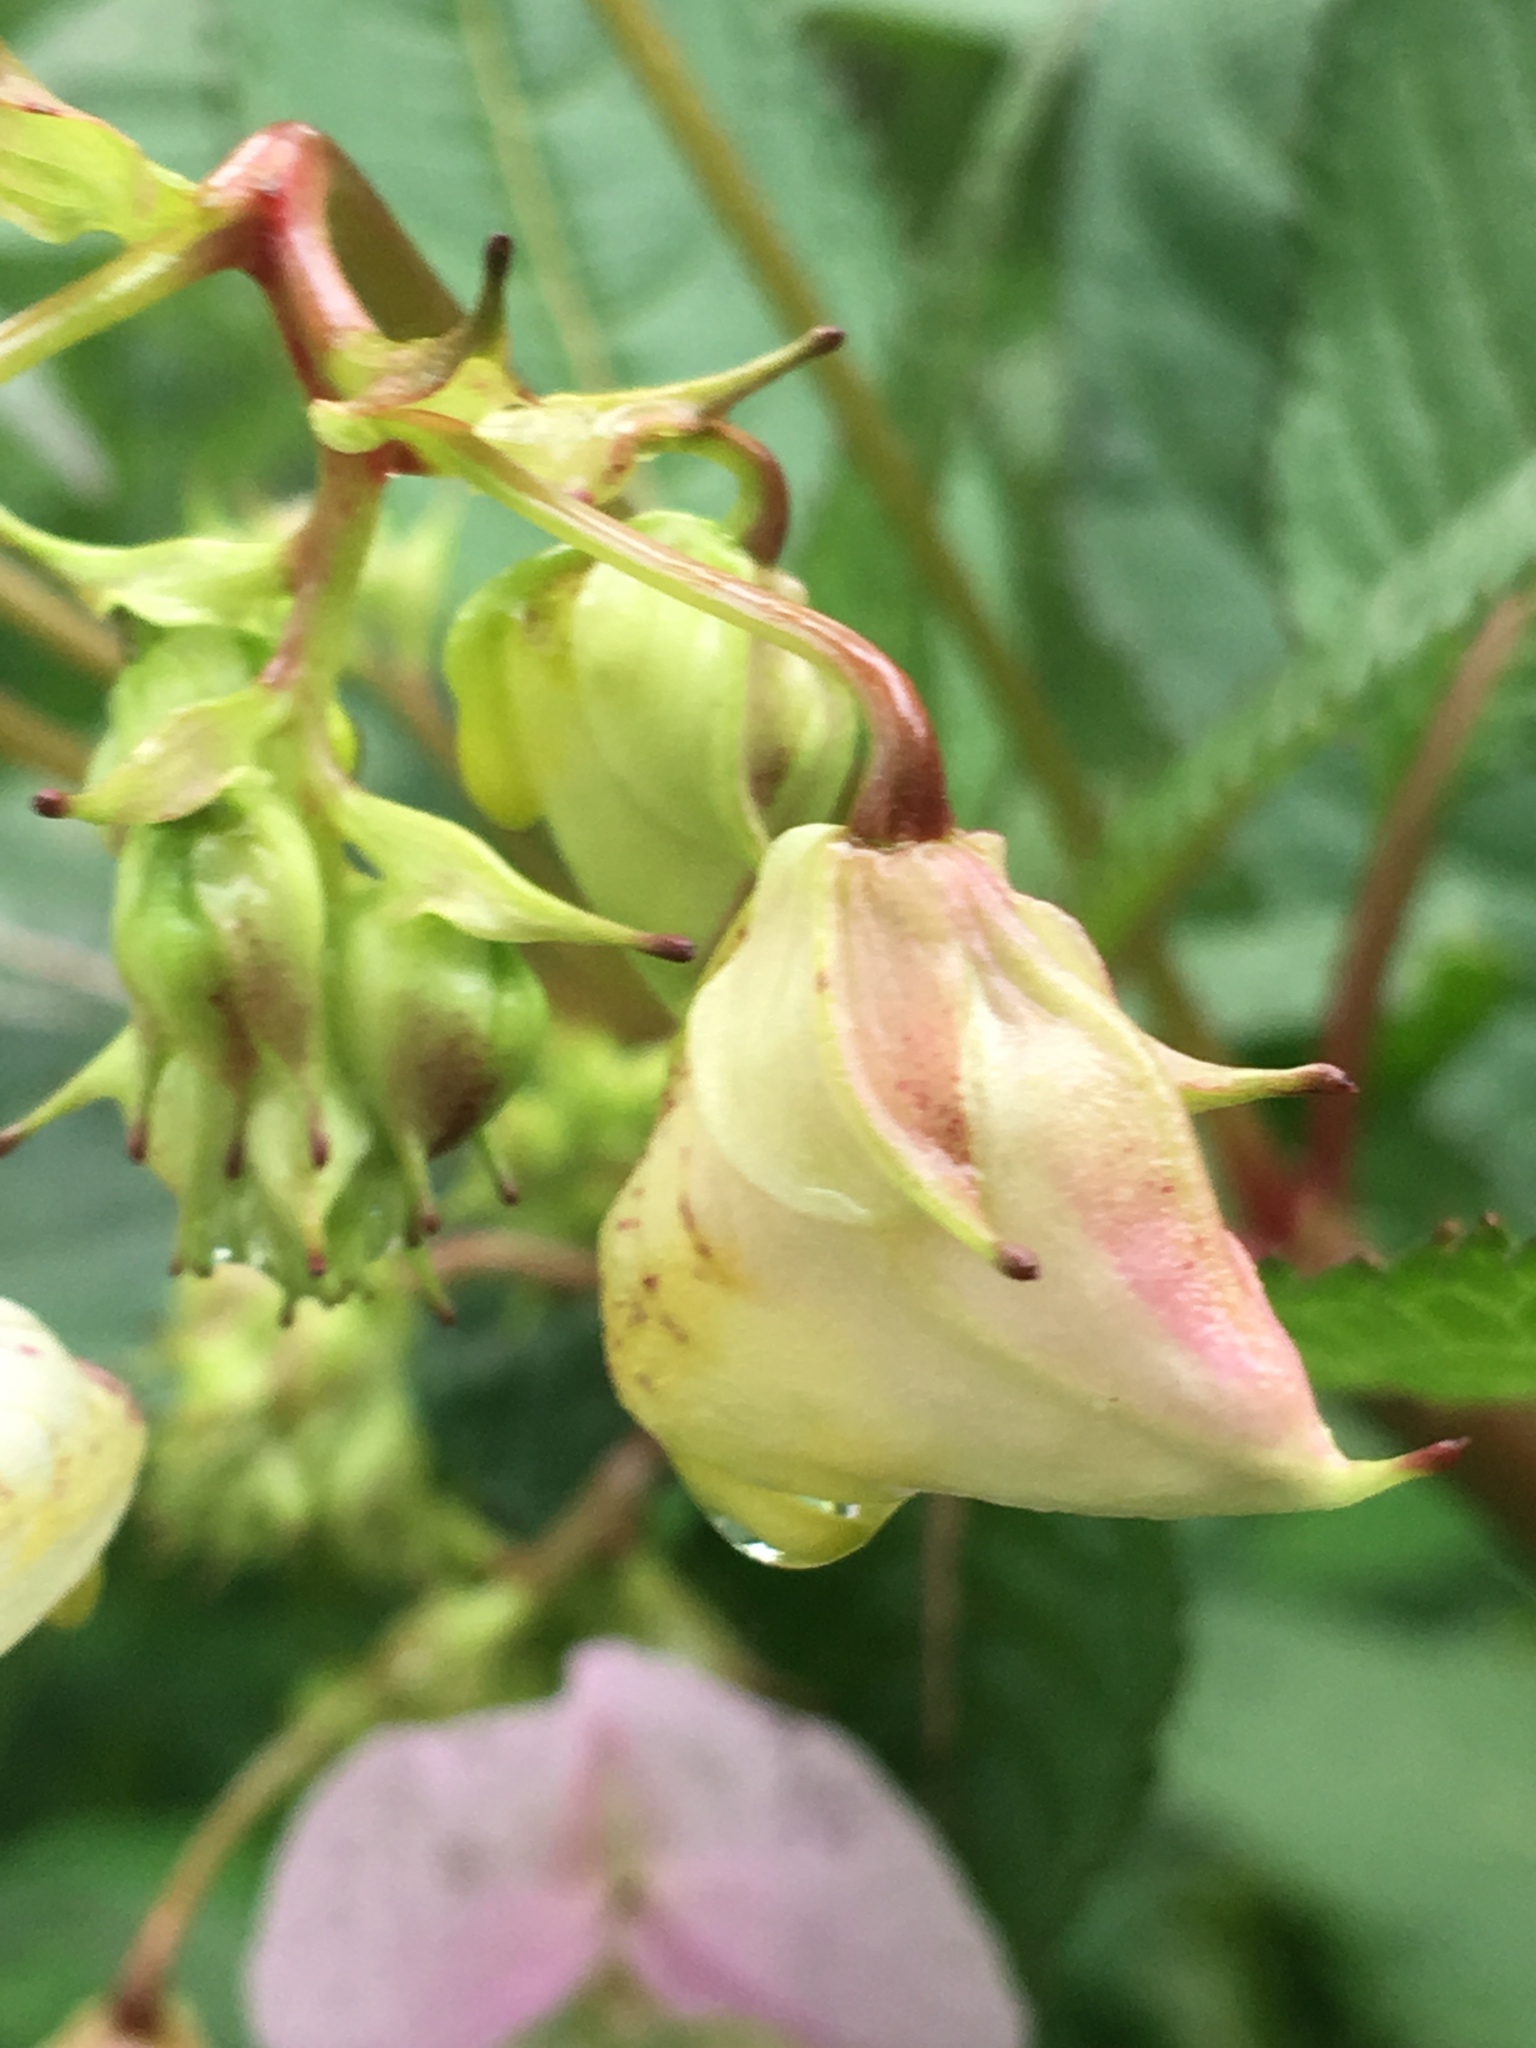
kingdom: Plantae
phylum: Tracheophyta
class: Magnoliopsida
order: Ericales
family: Balsaminaceae
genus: Impatiens
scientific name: Impatiens glandulifera
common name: Himalayan balsam
